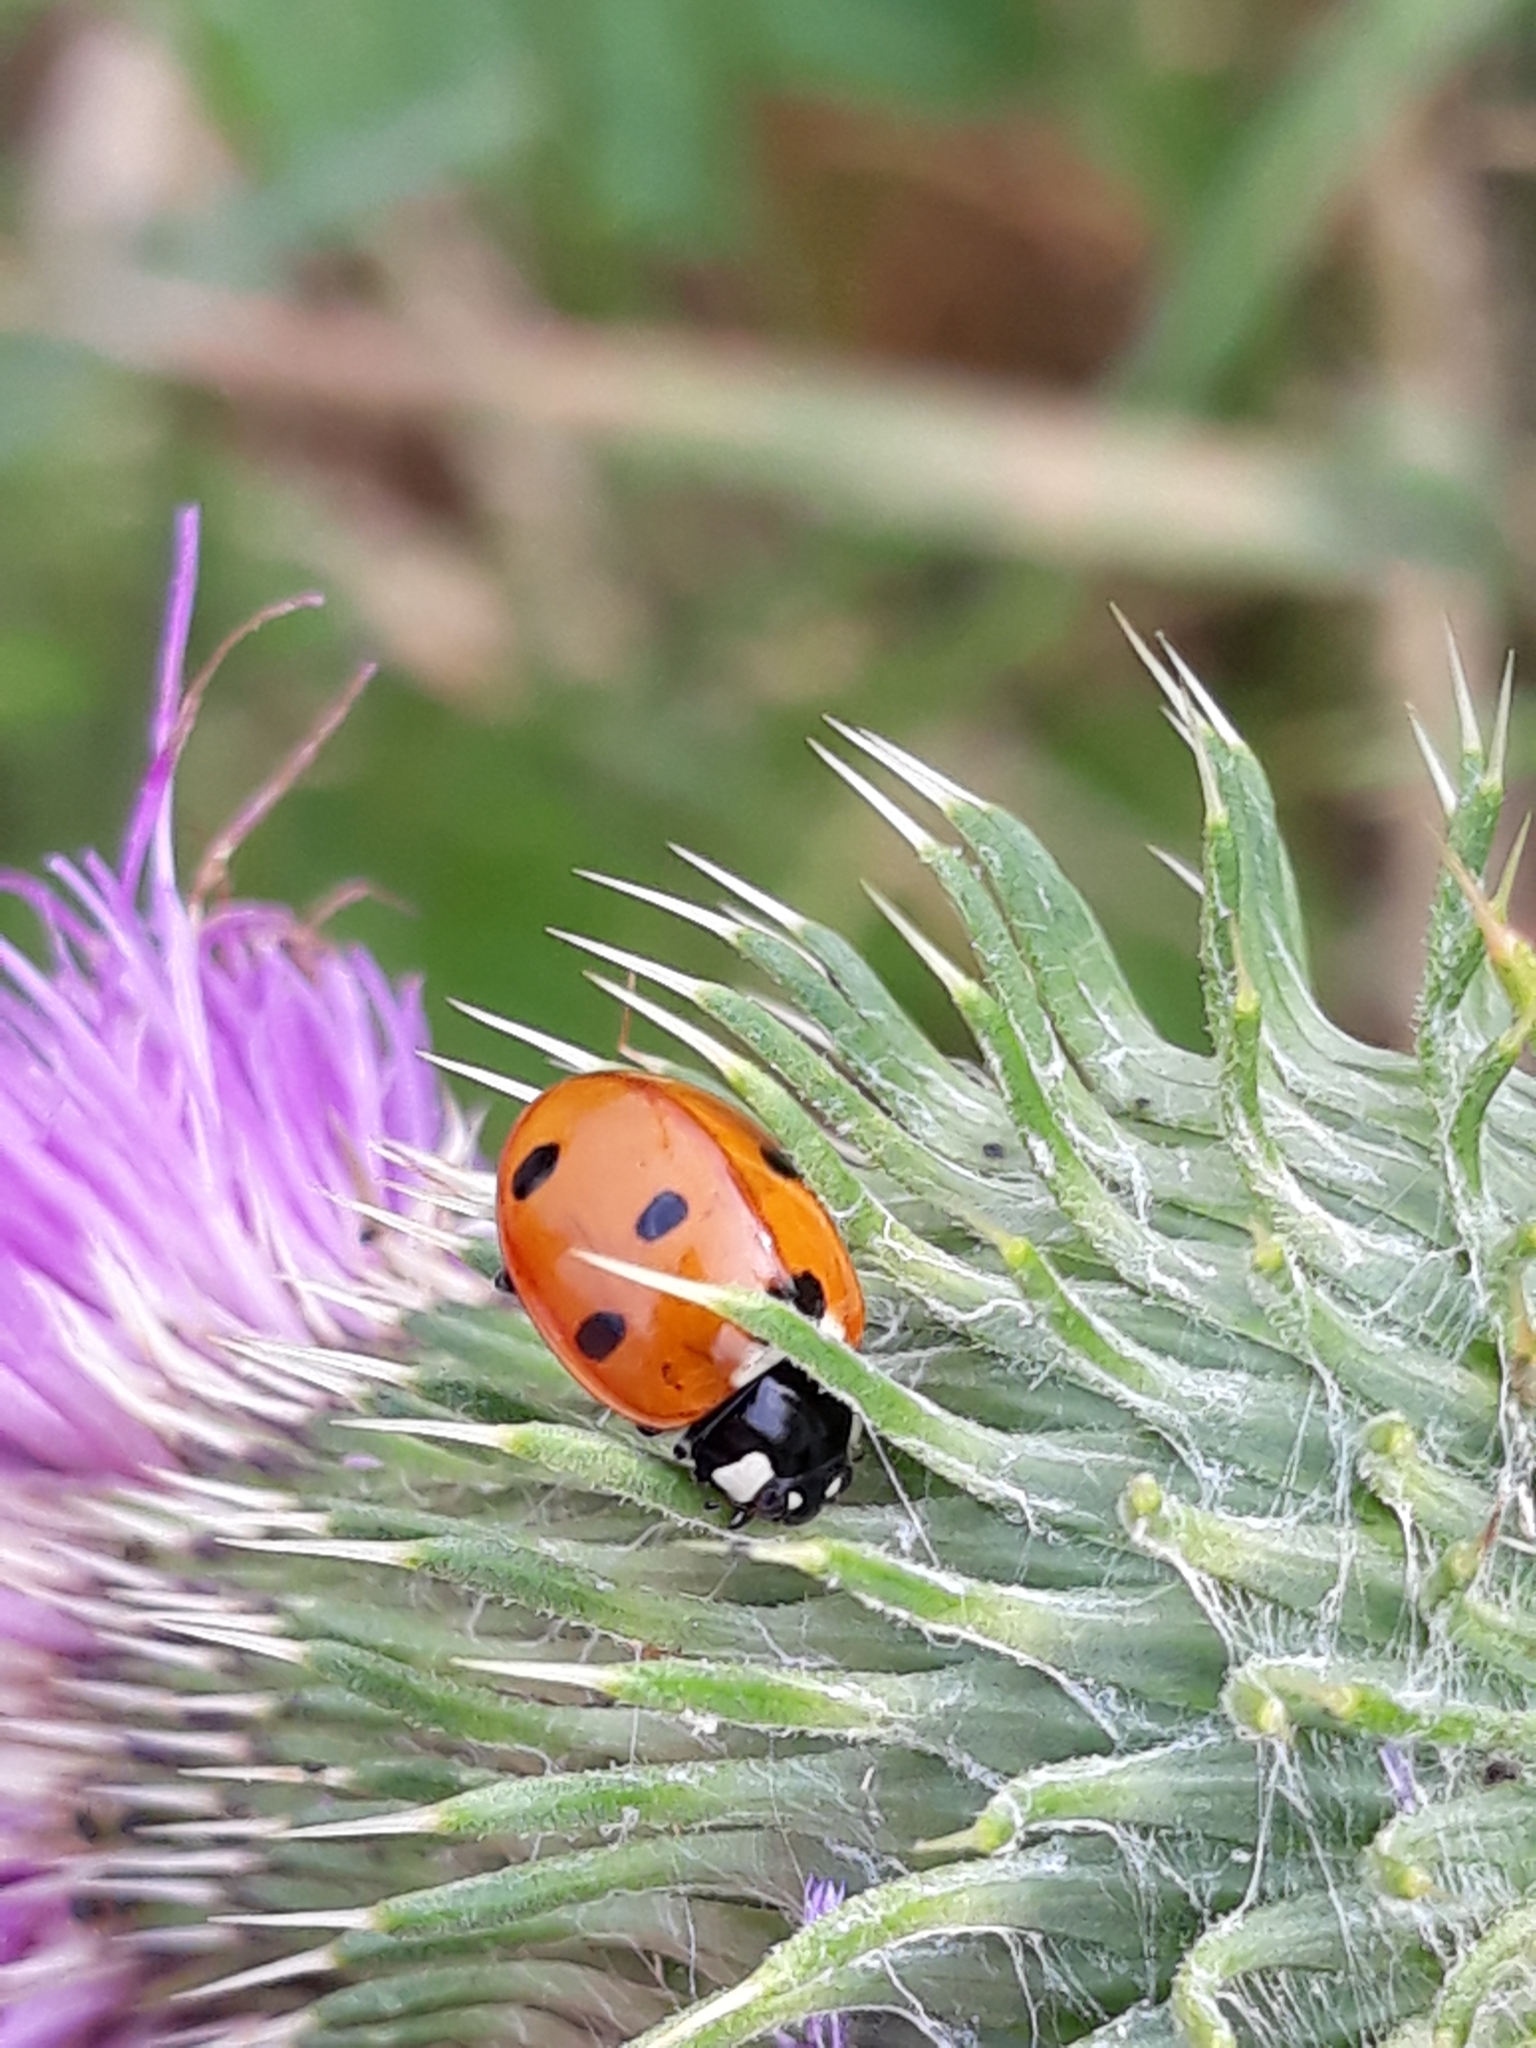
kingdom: Animalia
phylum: Arthropoda
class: Insecta
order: Coleoptera
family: Coccinellidae
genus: Coccinella
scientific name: Coccinella septempunctata
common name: Sevenspotted lady beetle
